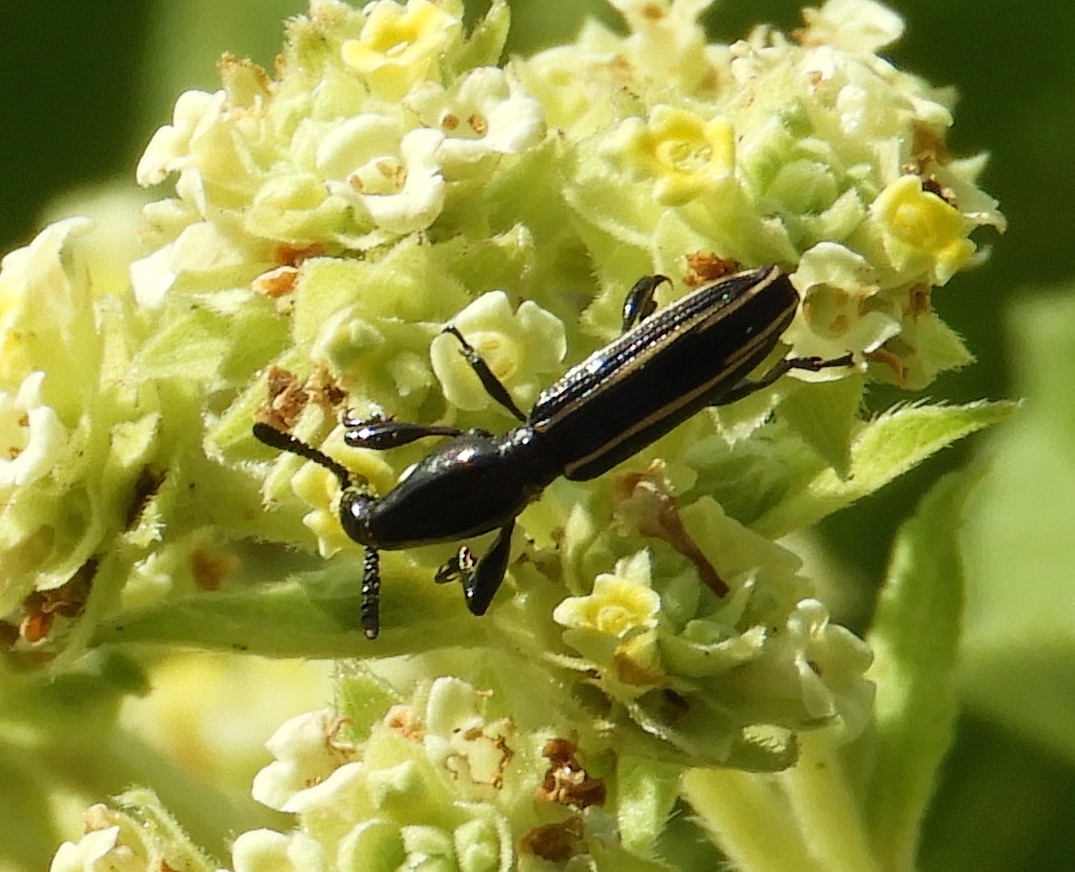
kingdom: Animalia
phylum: Arthropoda
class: Insecta
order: Coleoptera
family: Brentidae
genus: Brentus
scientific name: Brentus
